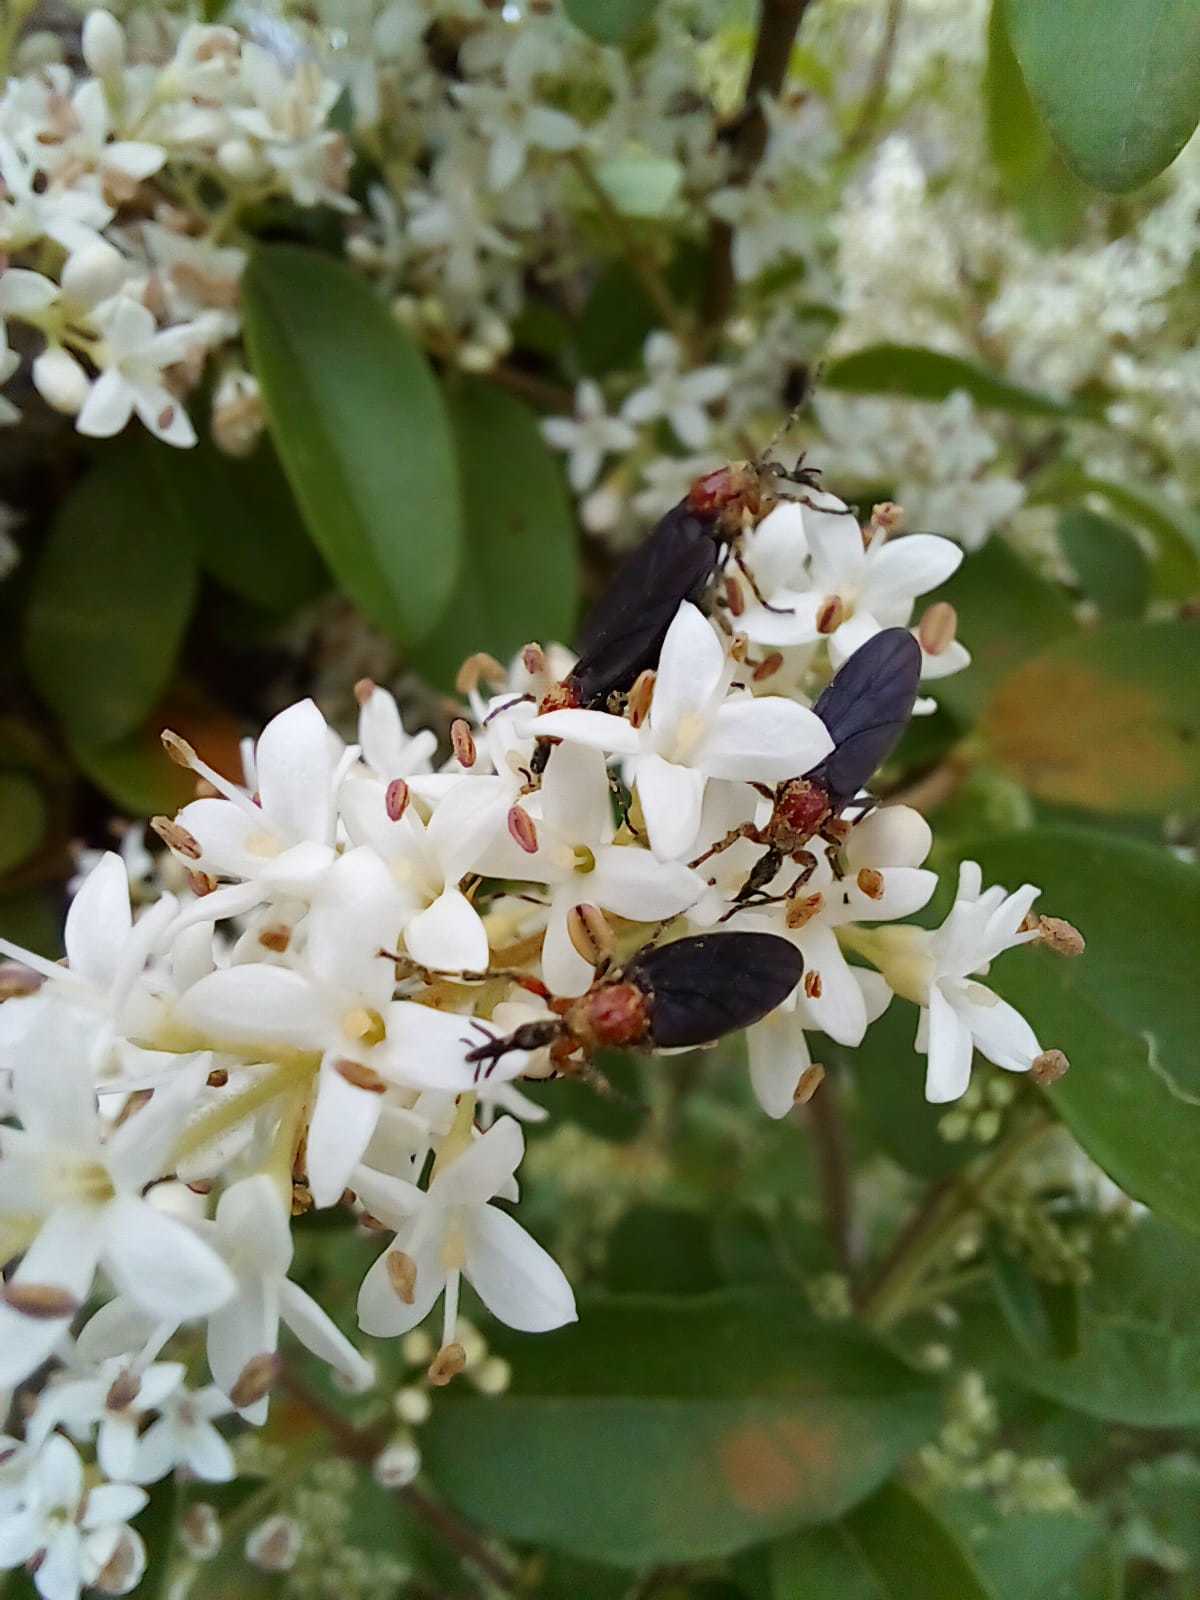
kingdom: Animalia
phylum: Arthropoda
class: Insecta
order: Diptera
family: Bibionidae
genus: Dilophus
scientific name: Dilophus pectoralis
